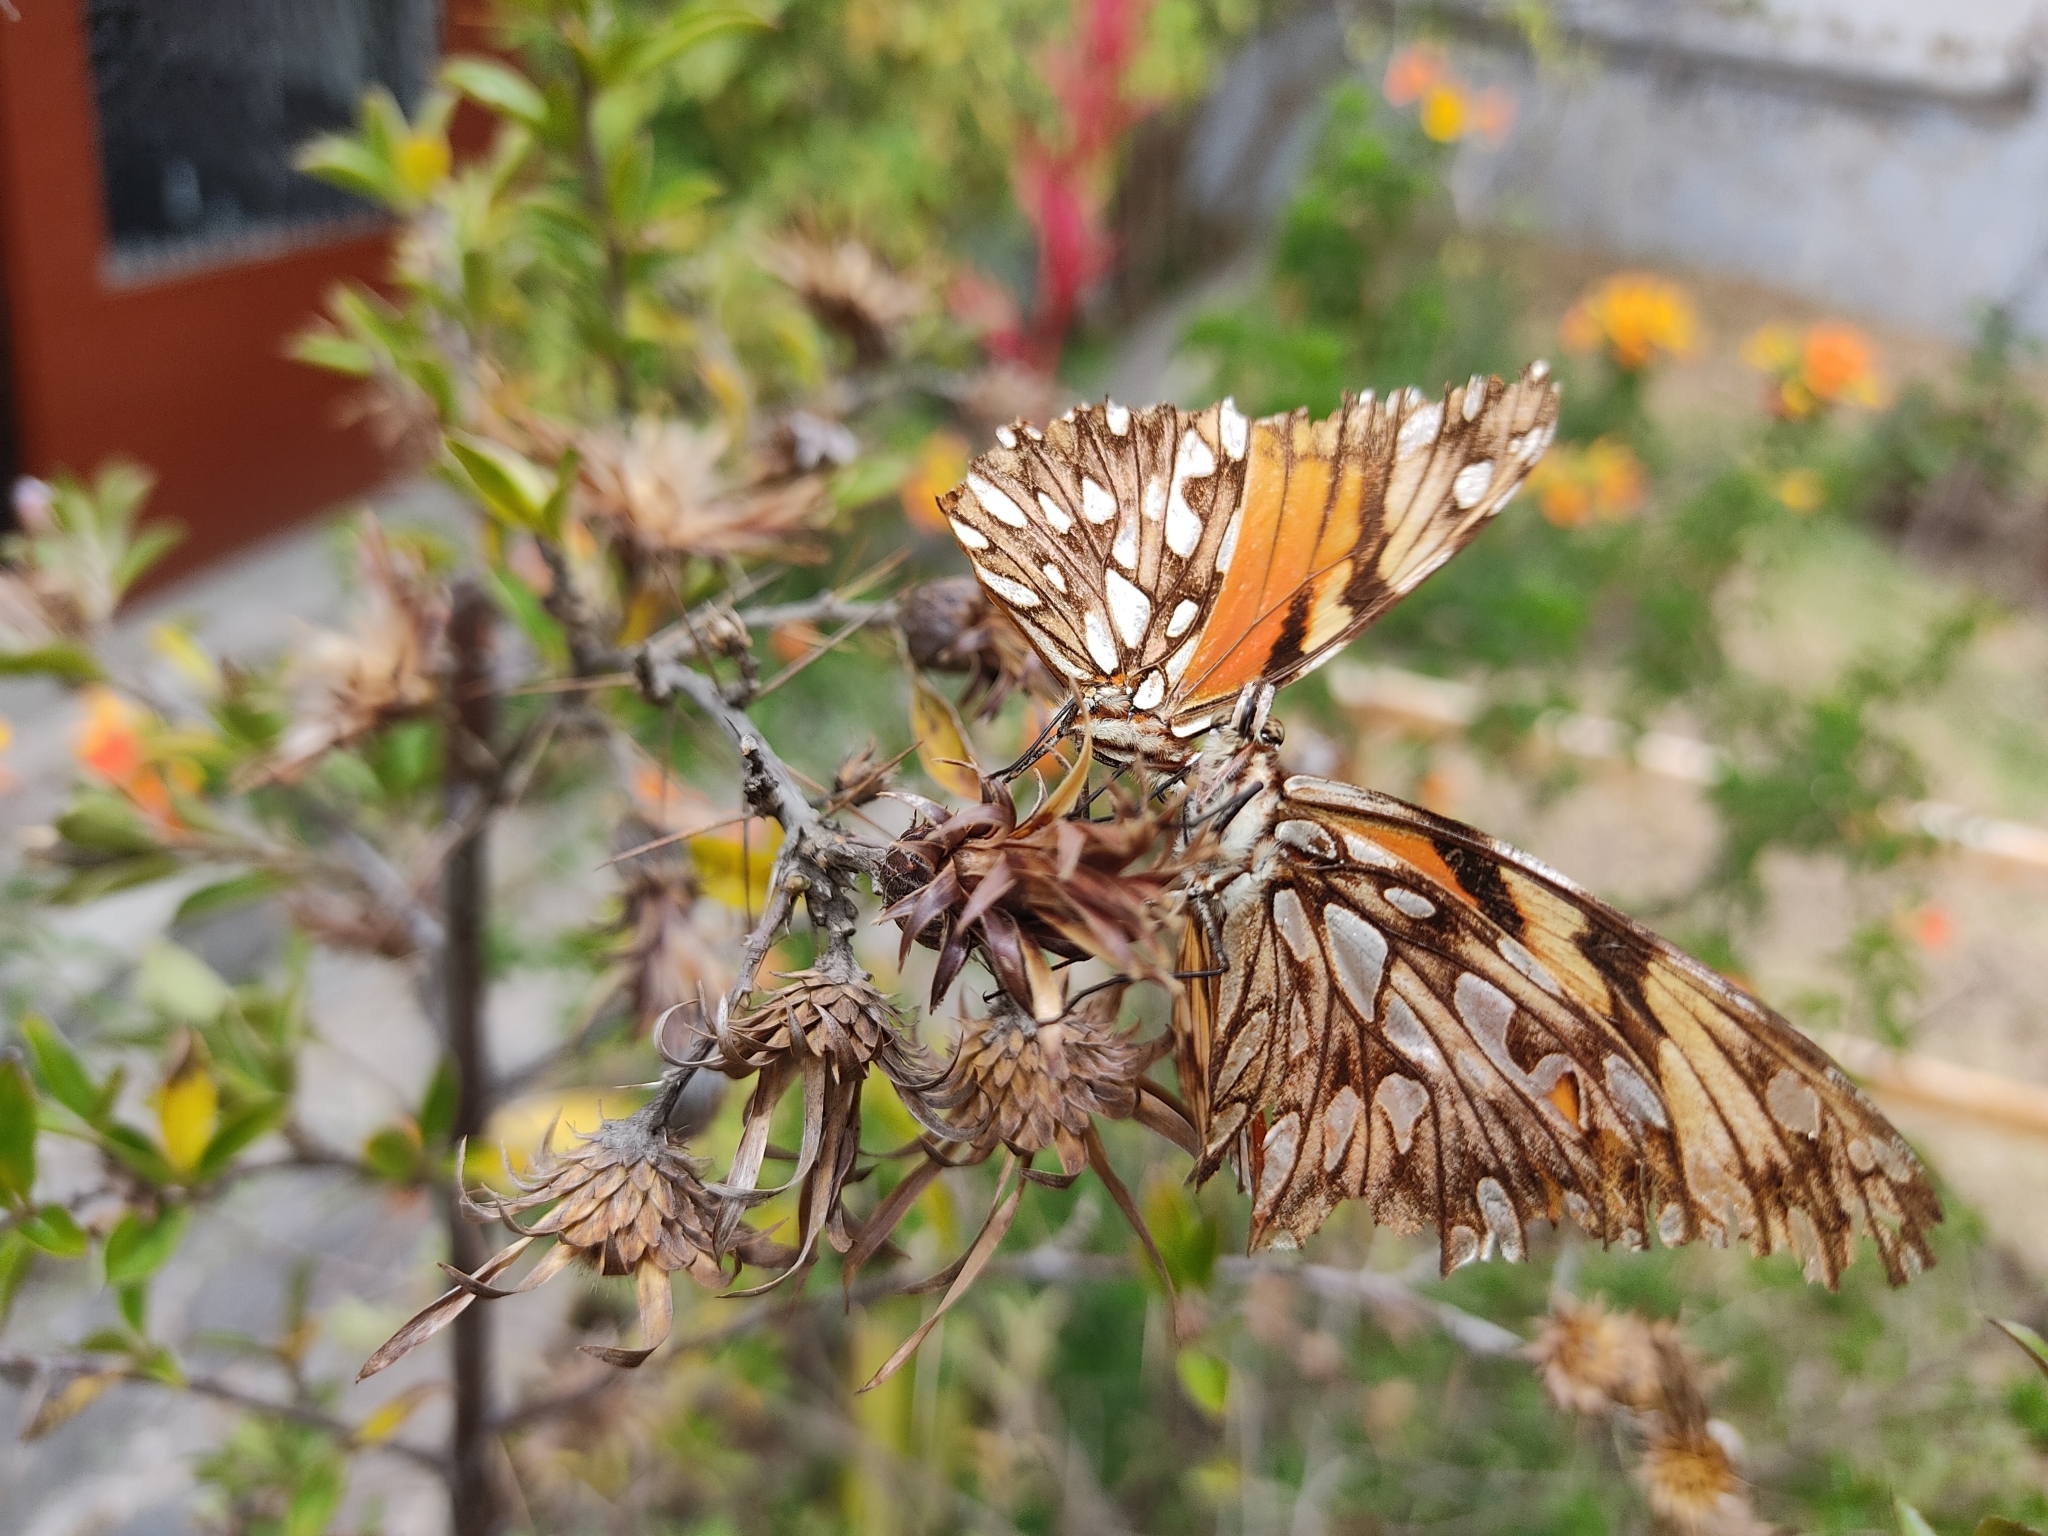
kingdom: Animalia
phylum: Arthropoda
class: Insecta
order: Lepidoptera
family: Nymphalidae
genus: Dione
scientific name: Dione juno
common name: Juno silverspot
